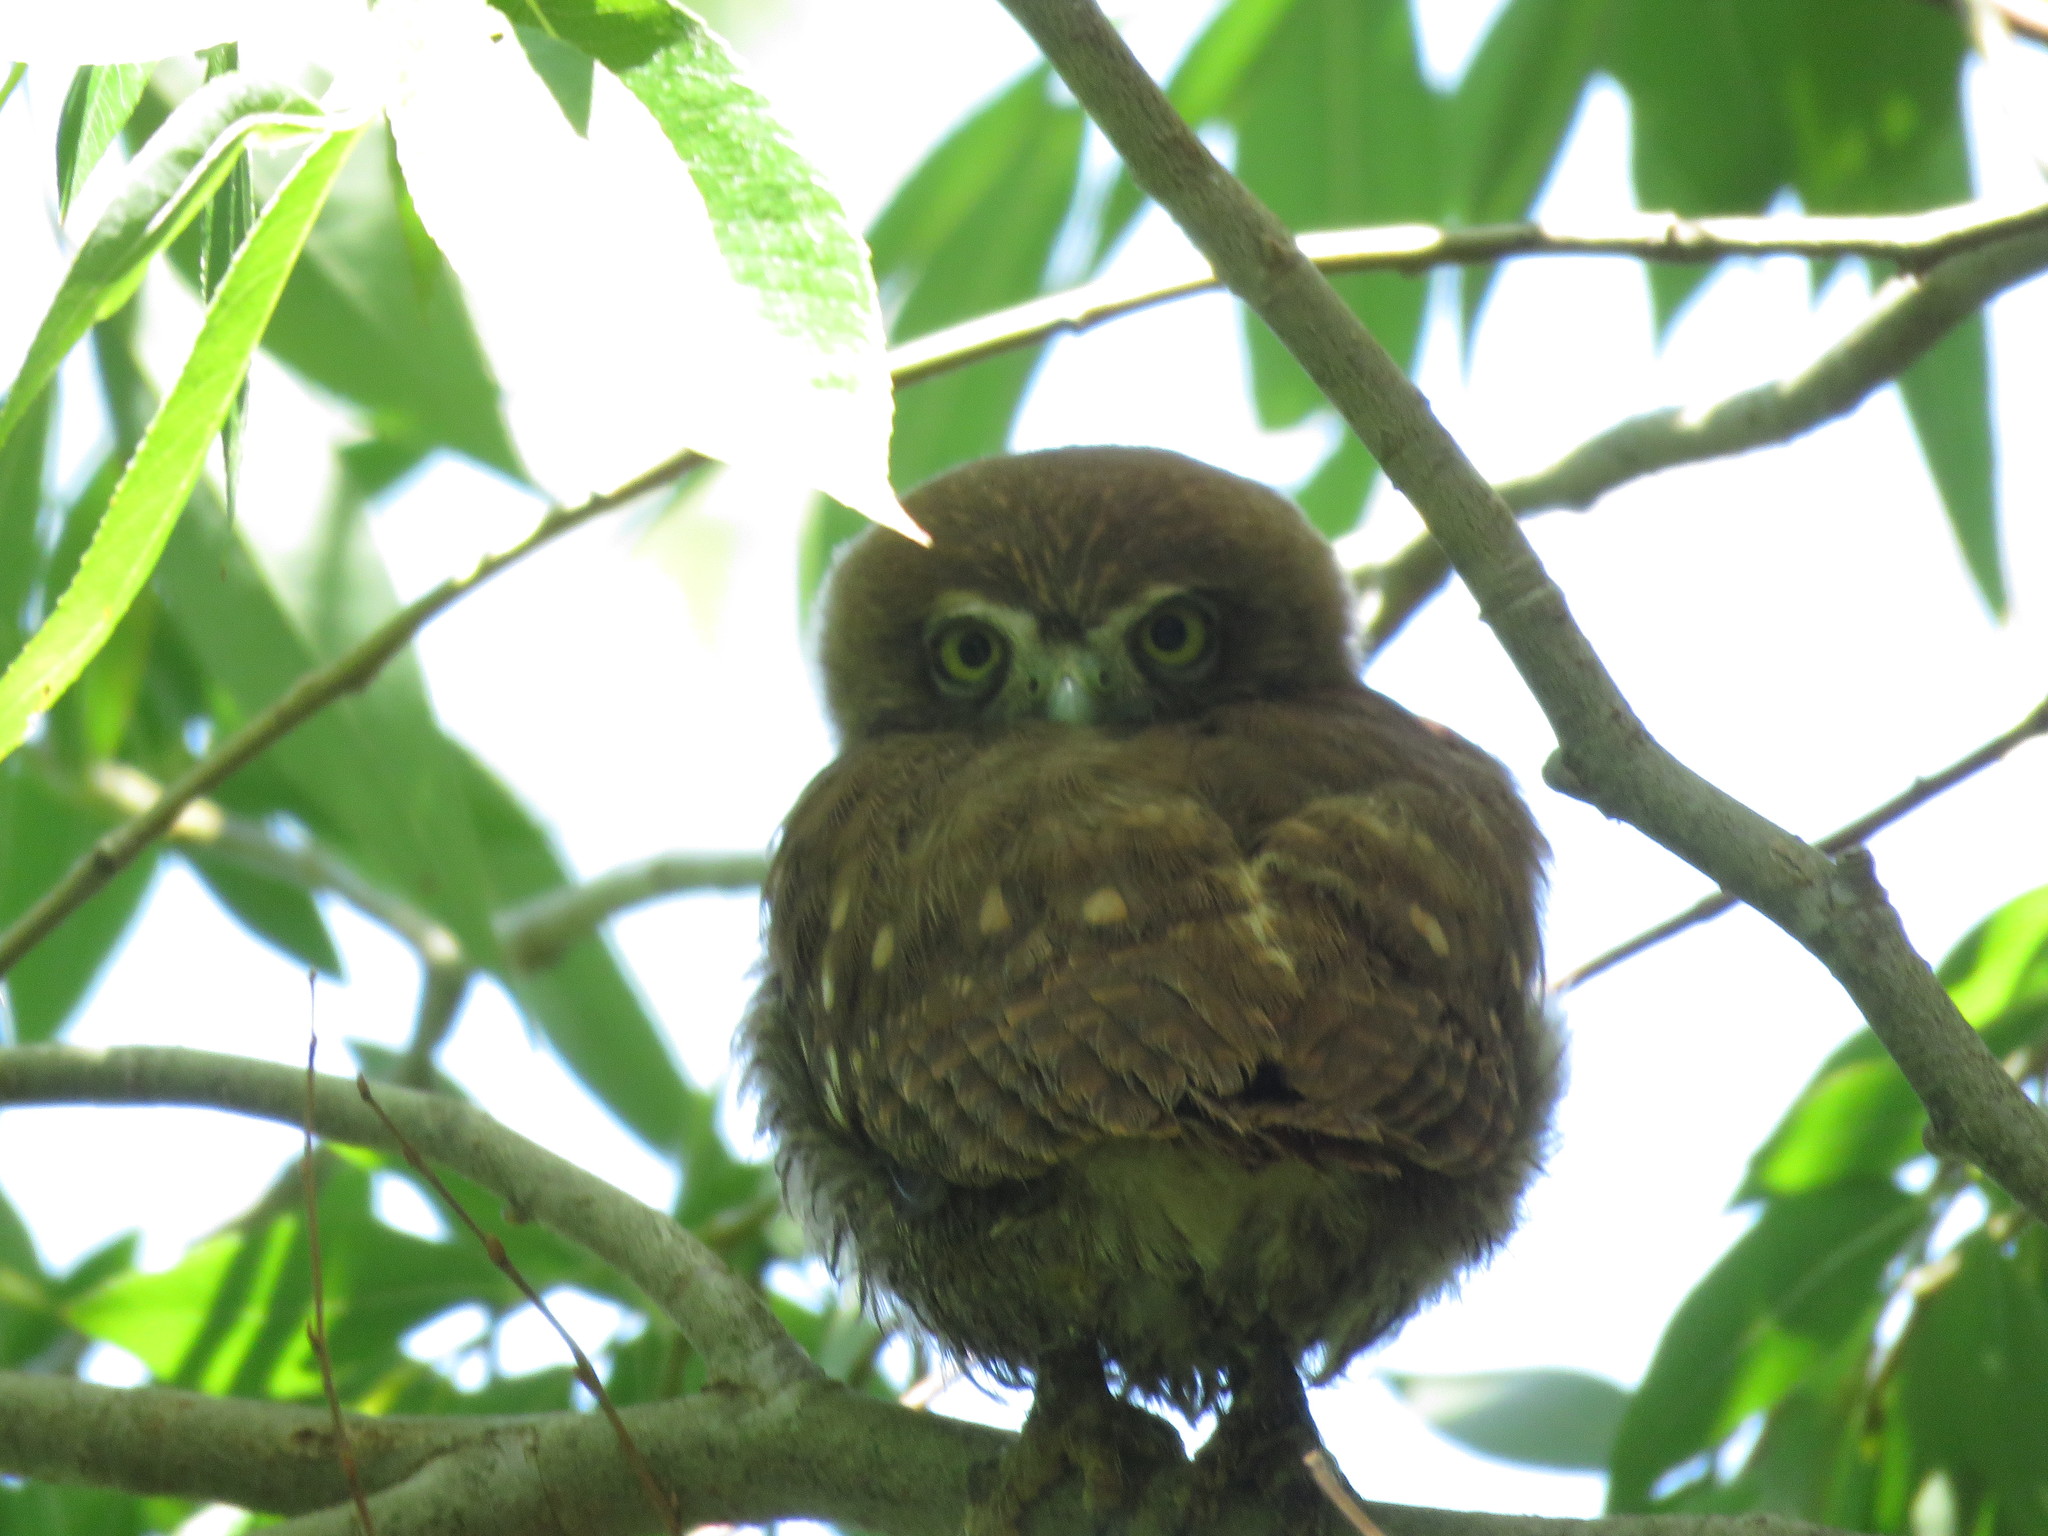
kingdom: Animalia
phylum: Chordata
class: Aves
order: Strigiformes
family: Strigidae
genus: Glaucidium
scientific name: Glaucidium brasilianum
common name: Ferruginous pygmy-owl
